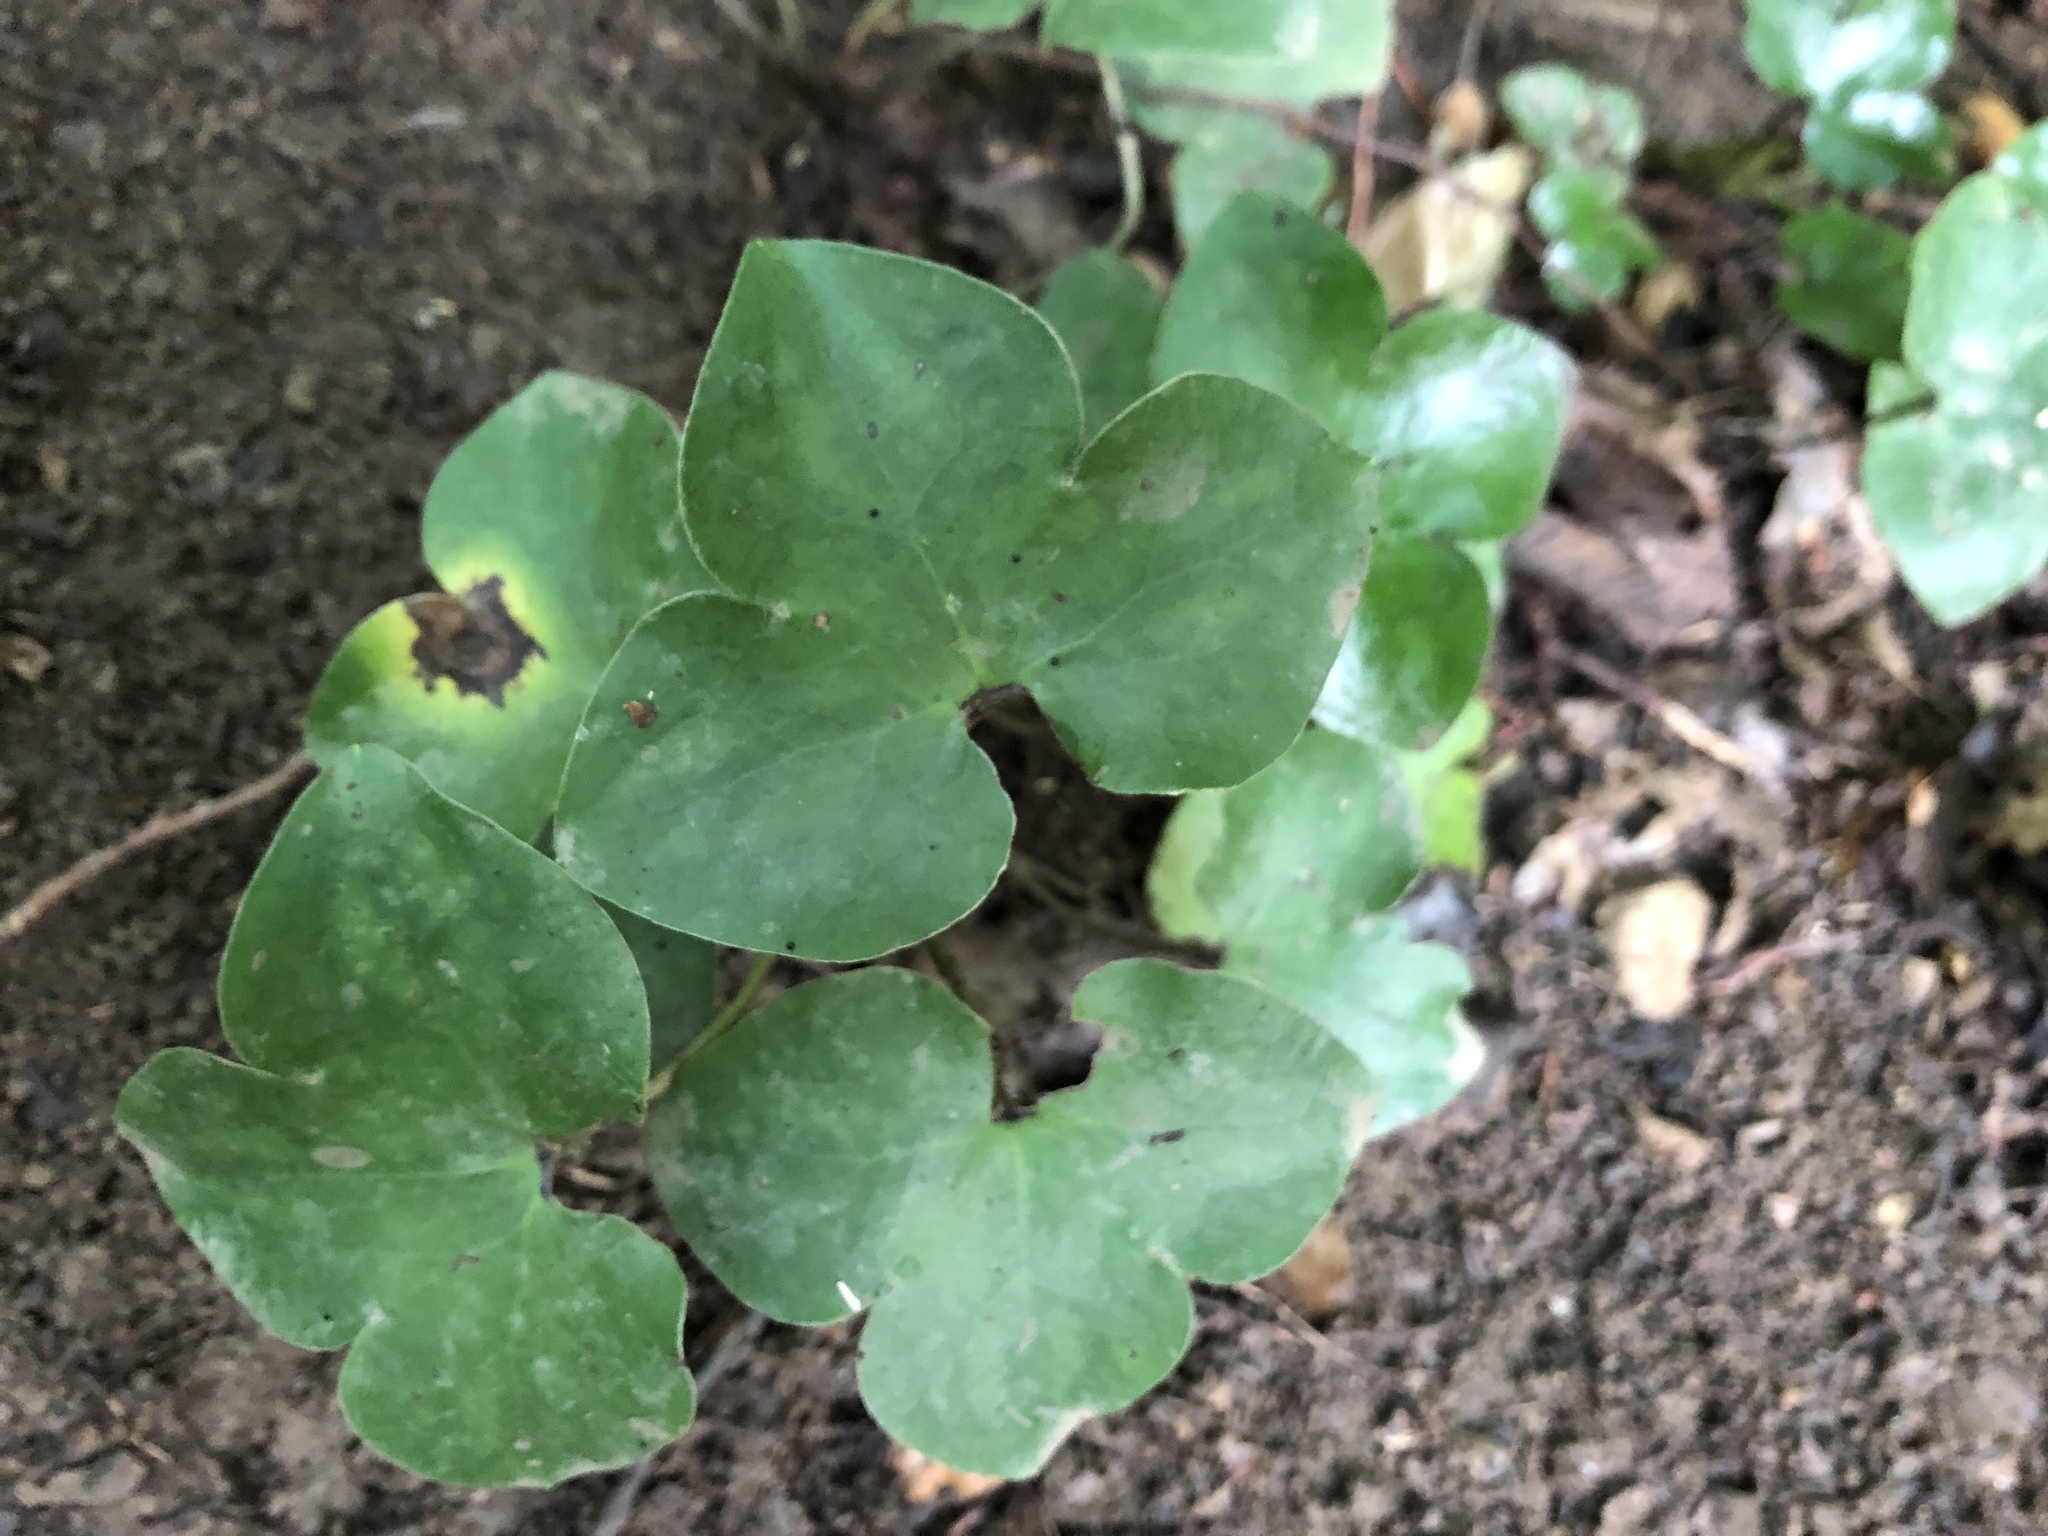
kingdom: Plantae
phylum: Tracheophyta
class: Magnoliopsida
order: Ranunculales
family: Ranunculaceae
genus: Hepatica
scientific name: Hepatica nobilis
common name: Liverleaf
